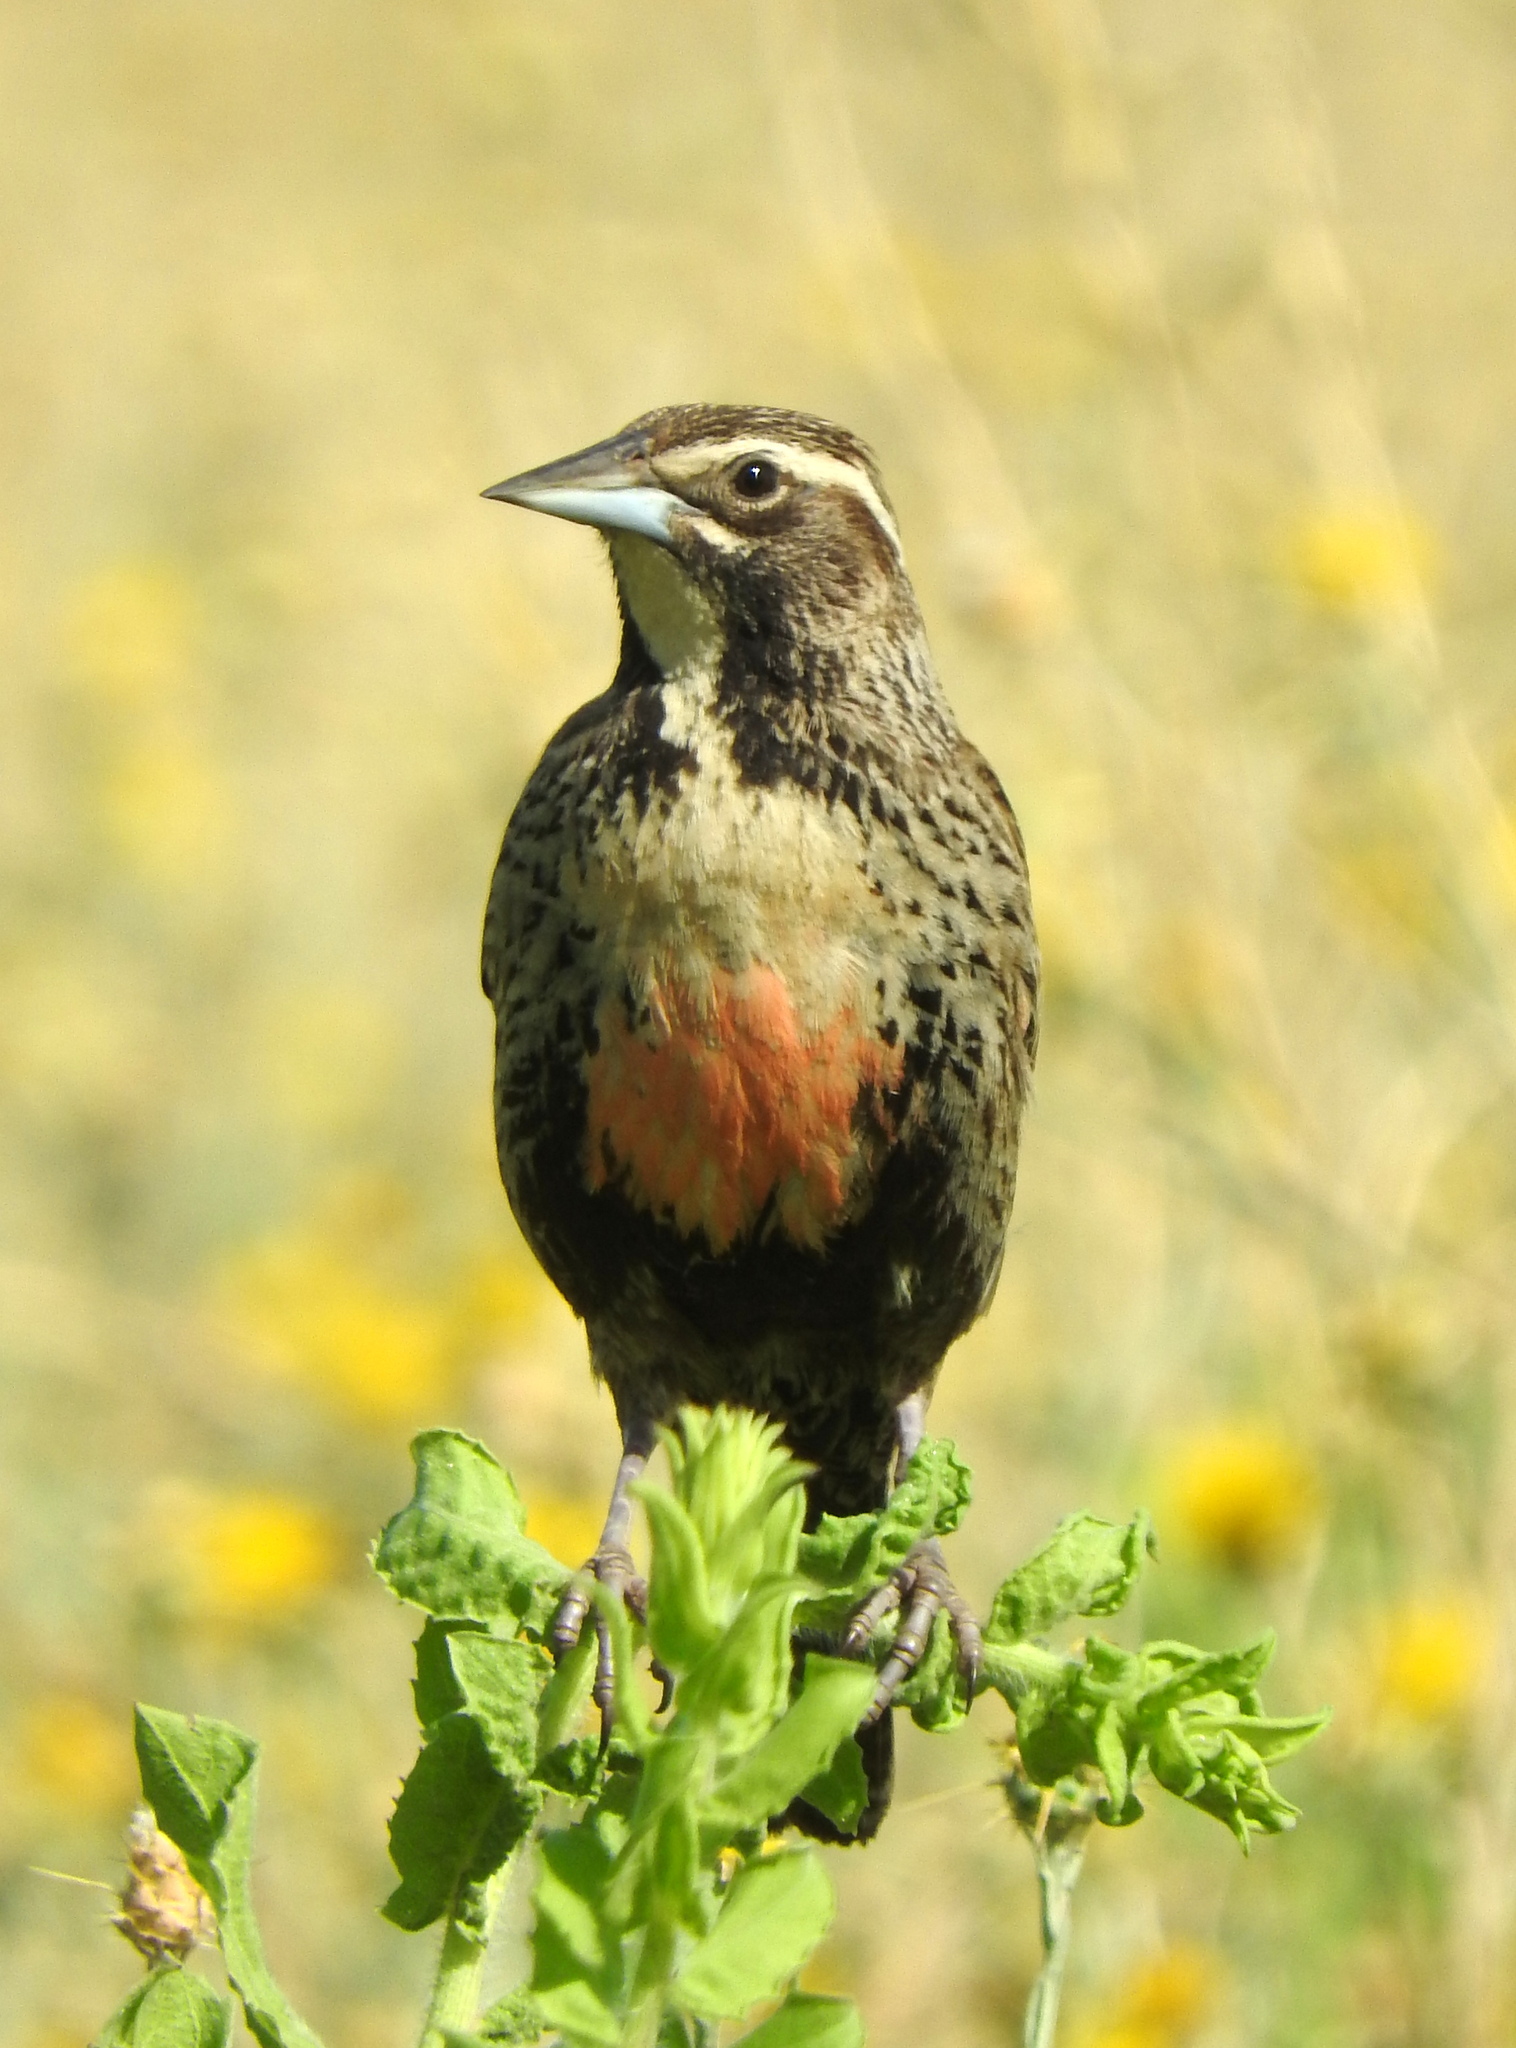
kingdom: Animalia
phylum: Chordata
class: Aves
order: Passeriformes
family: Icteridae
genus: Sturnella
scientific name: Sturnella loyca
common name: Long-tailed meadowlark
